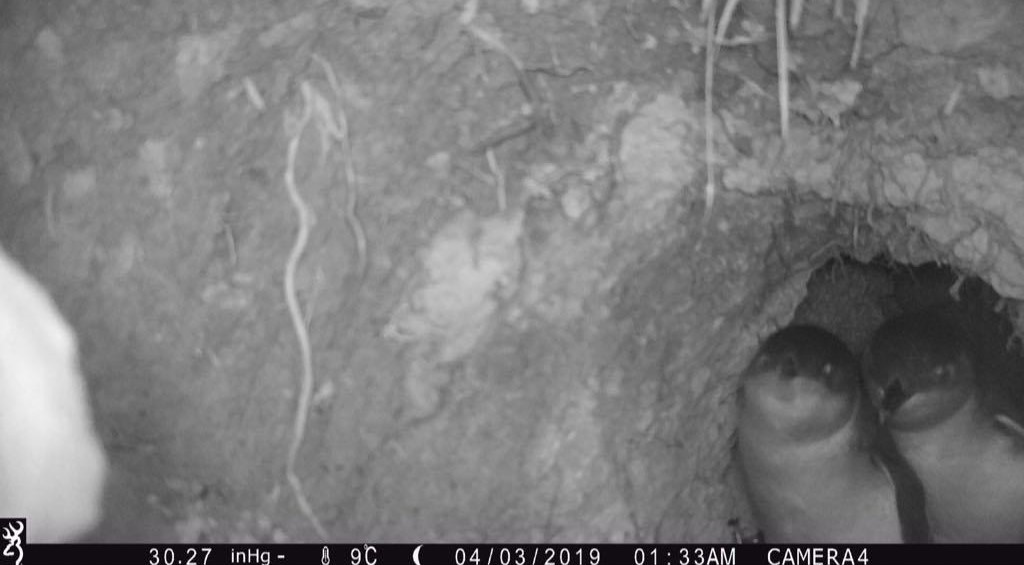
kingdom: Animalia
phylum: Chordata
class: Aves
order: Sphenisciformes
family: Spheniscidae
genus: Eudyptula
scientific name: Eudyptula minor
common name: Little penguin
